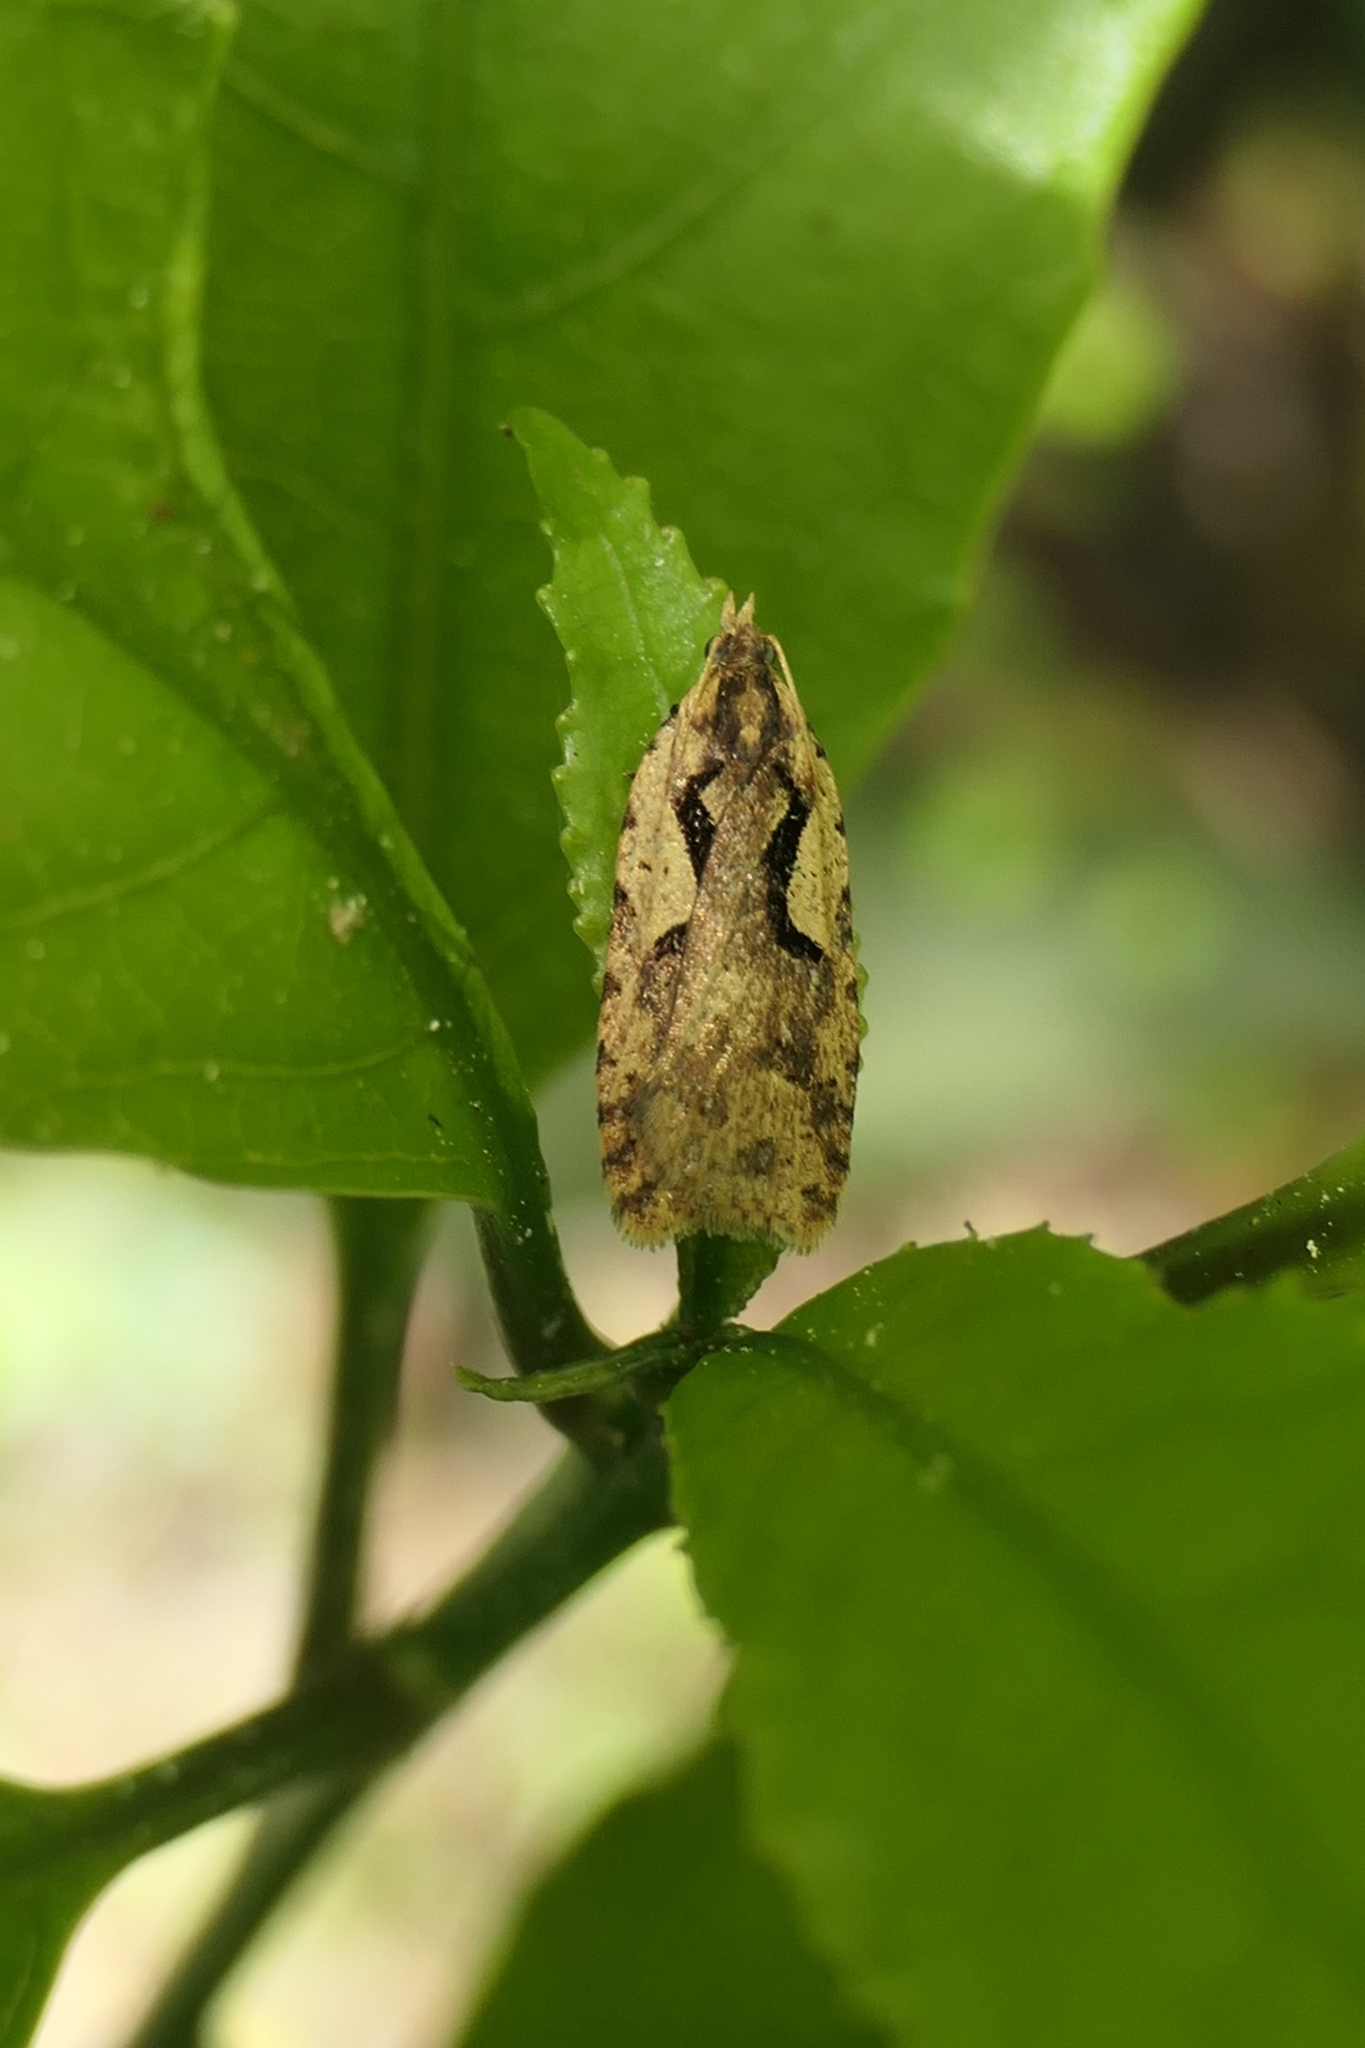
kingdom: Animalia
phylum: Arthropoda
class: Insecta
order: Lepidoptera
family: Tortricidae
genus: Cnephasia
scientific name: Cnephasia jactatana
